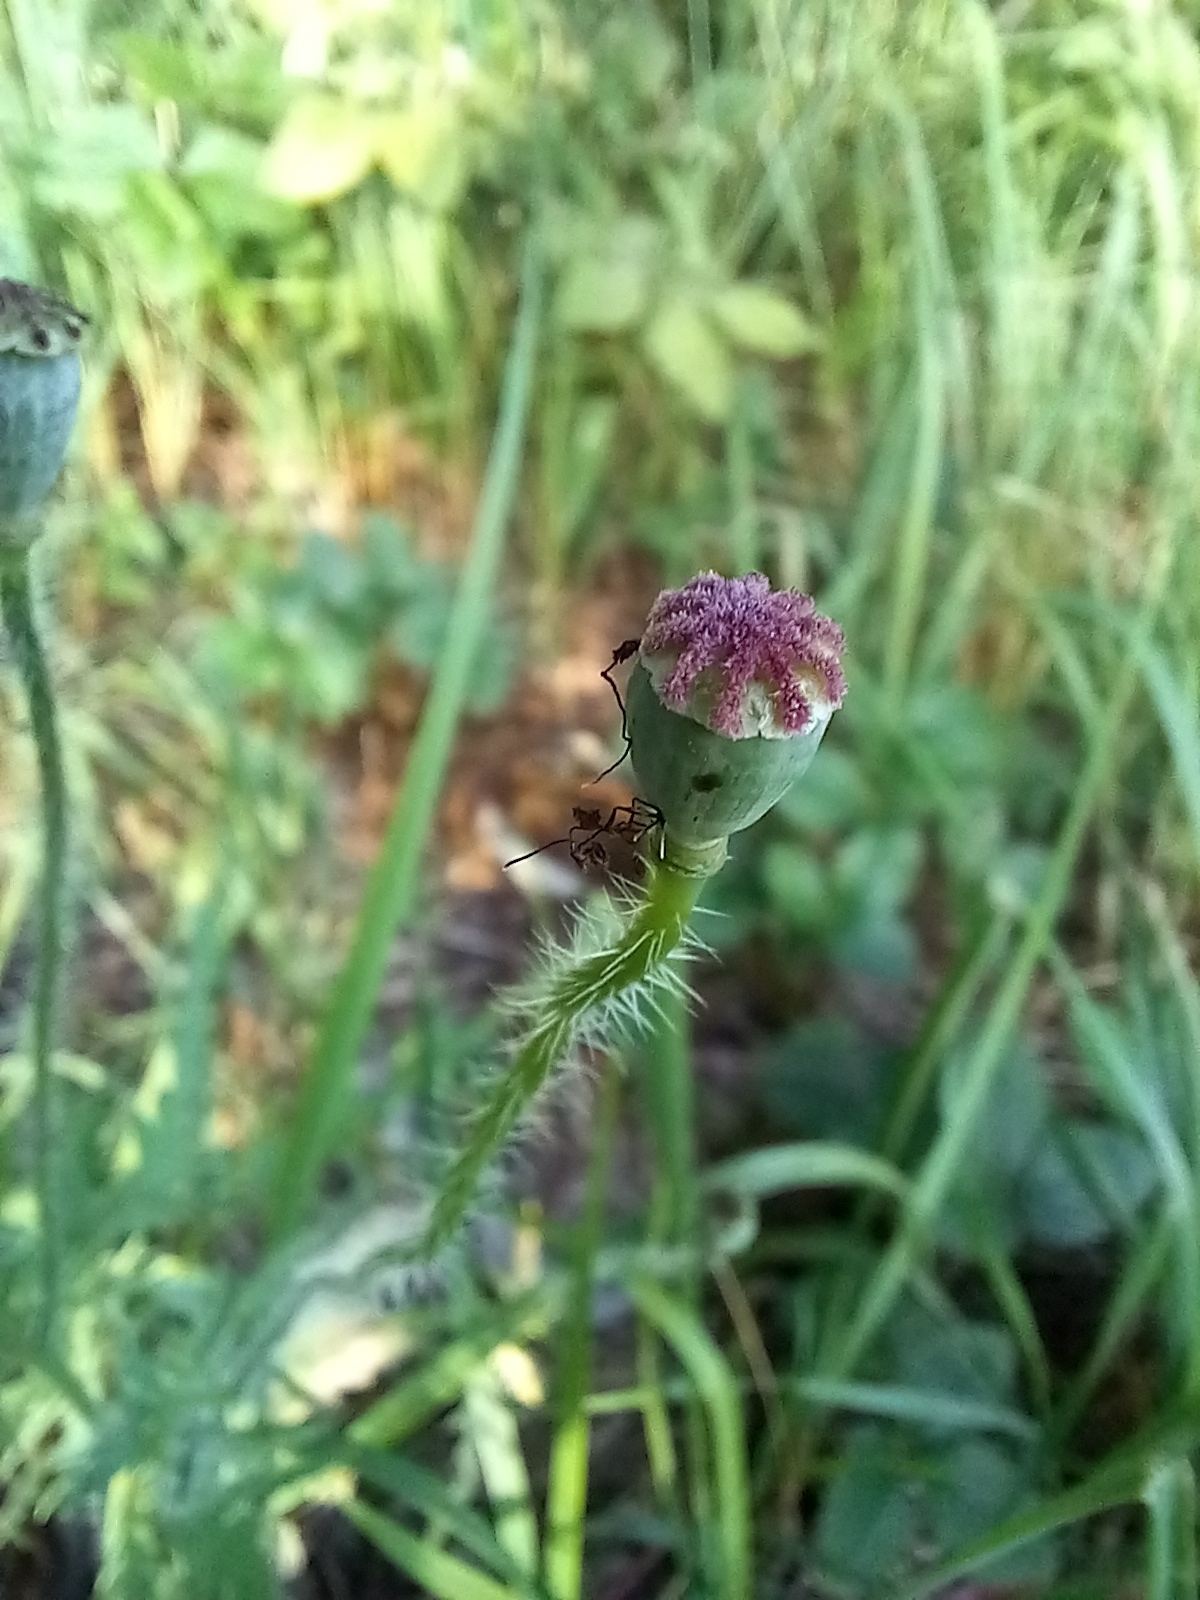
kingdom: Plantae
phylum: Tracheophyta
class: Magnoliopsida
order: Ranunculales
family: Papaveraceae
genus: Papaver
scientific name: Papaver rhoeas
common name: Corn poppy
